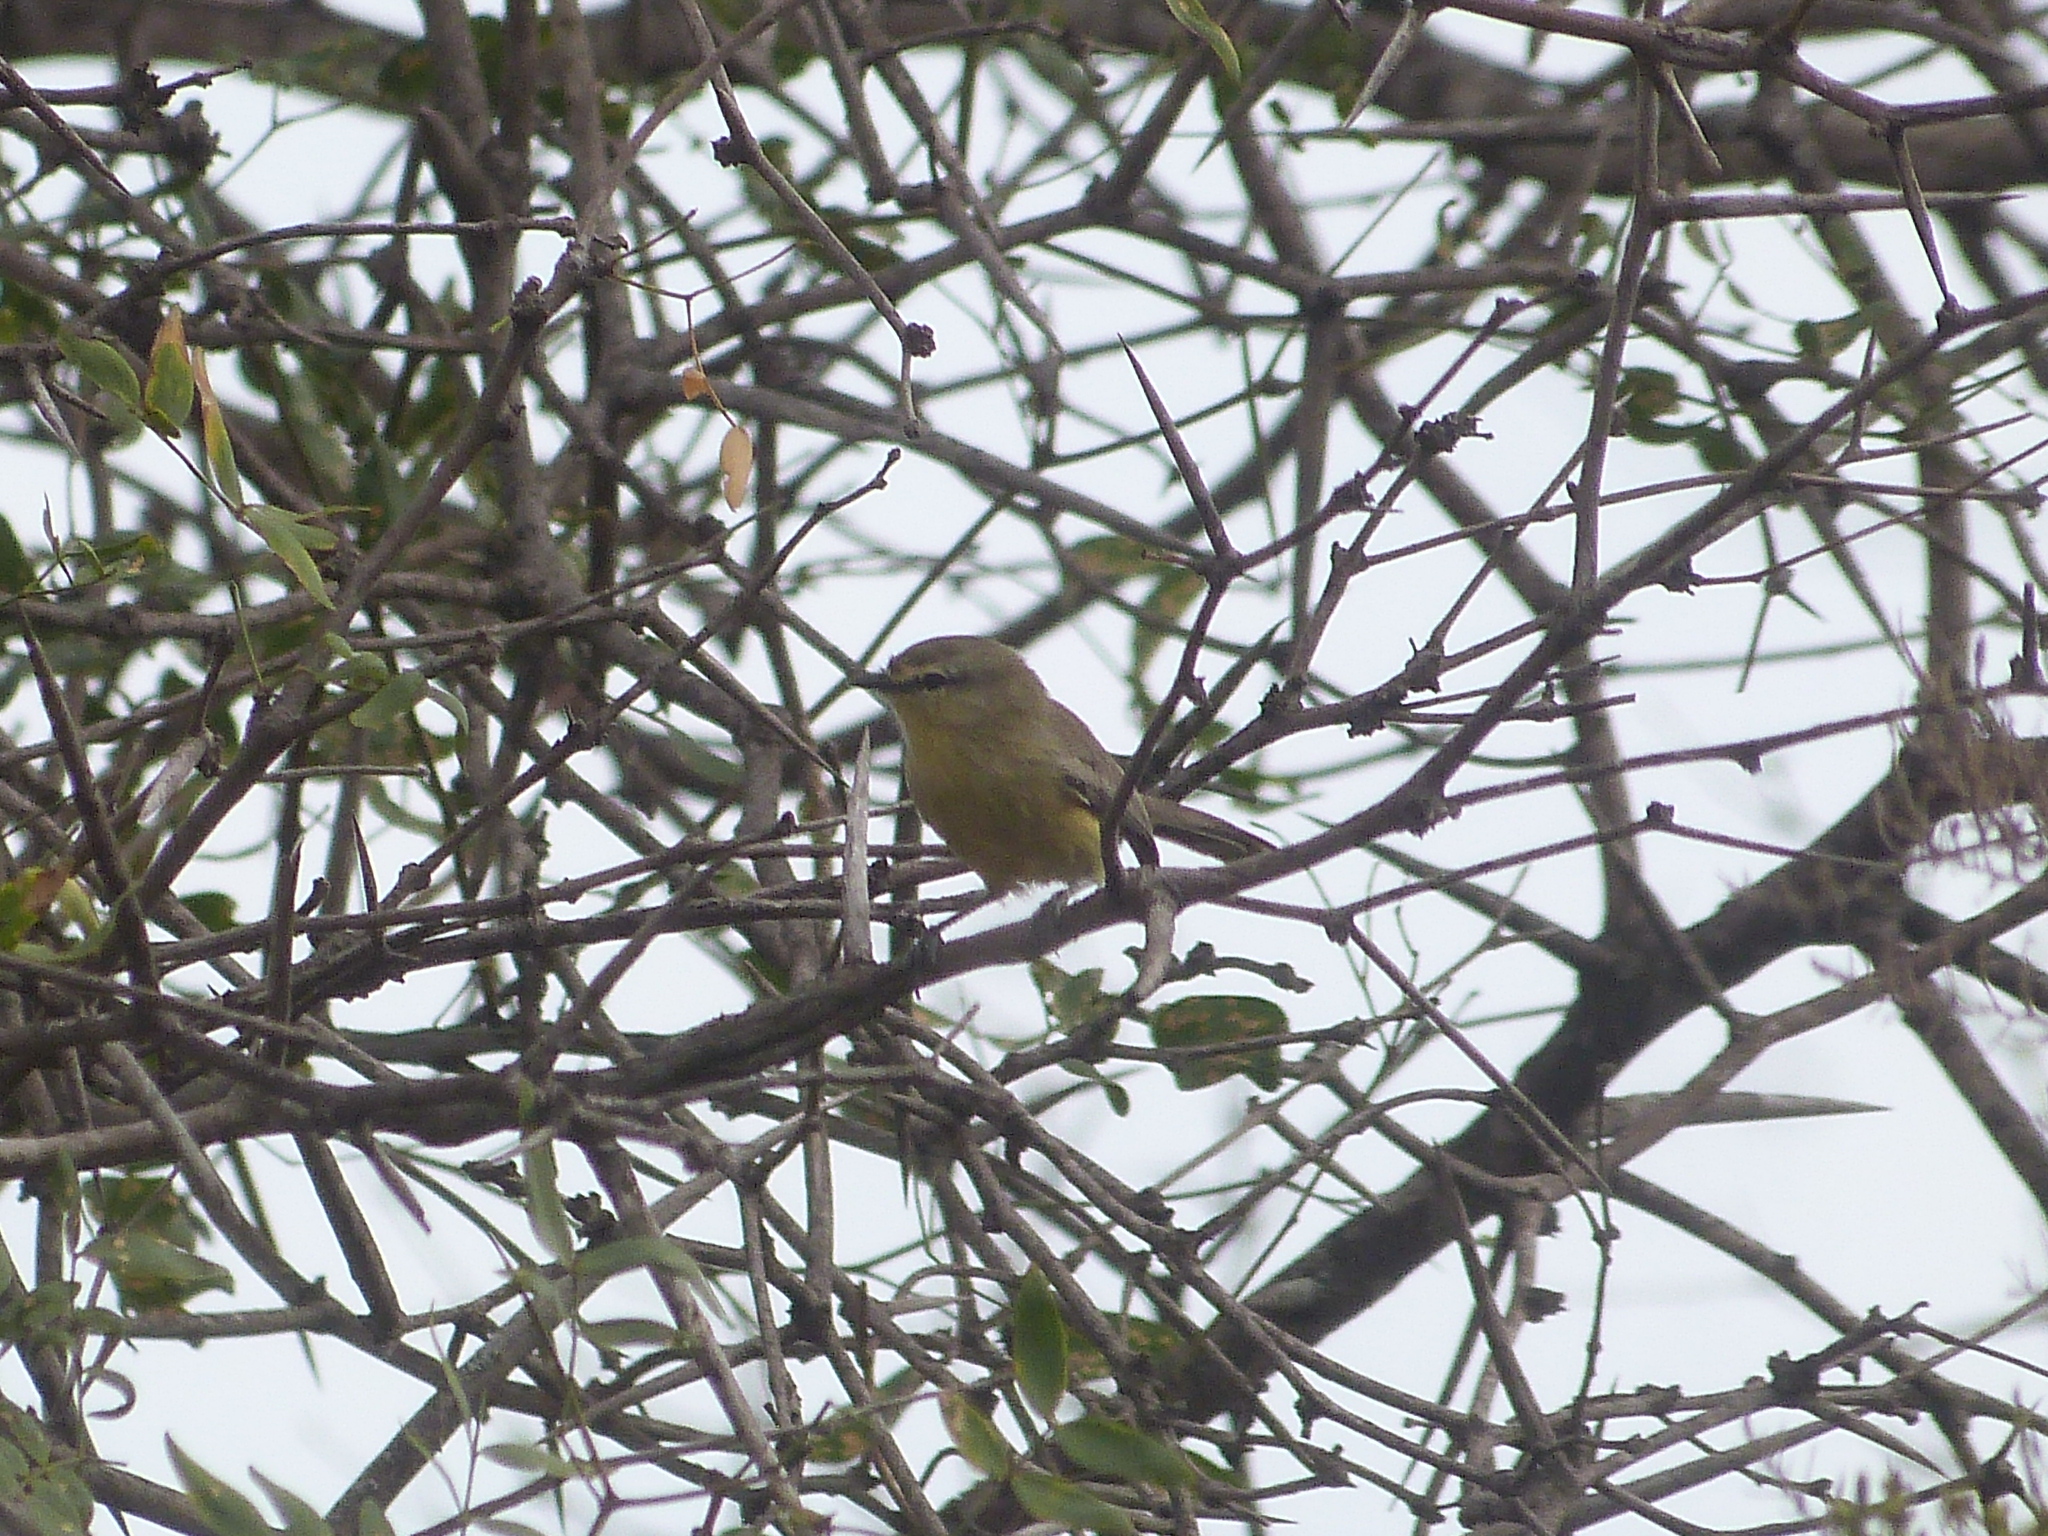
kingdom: Animalia
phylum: Chordata
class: Aves
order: Passeriformes
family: Tyrannidae
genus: Stigmatura
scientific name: Stigmatura budytoides
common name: Greater wagtail-tyrant
